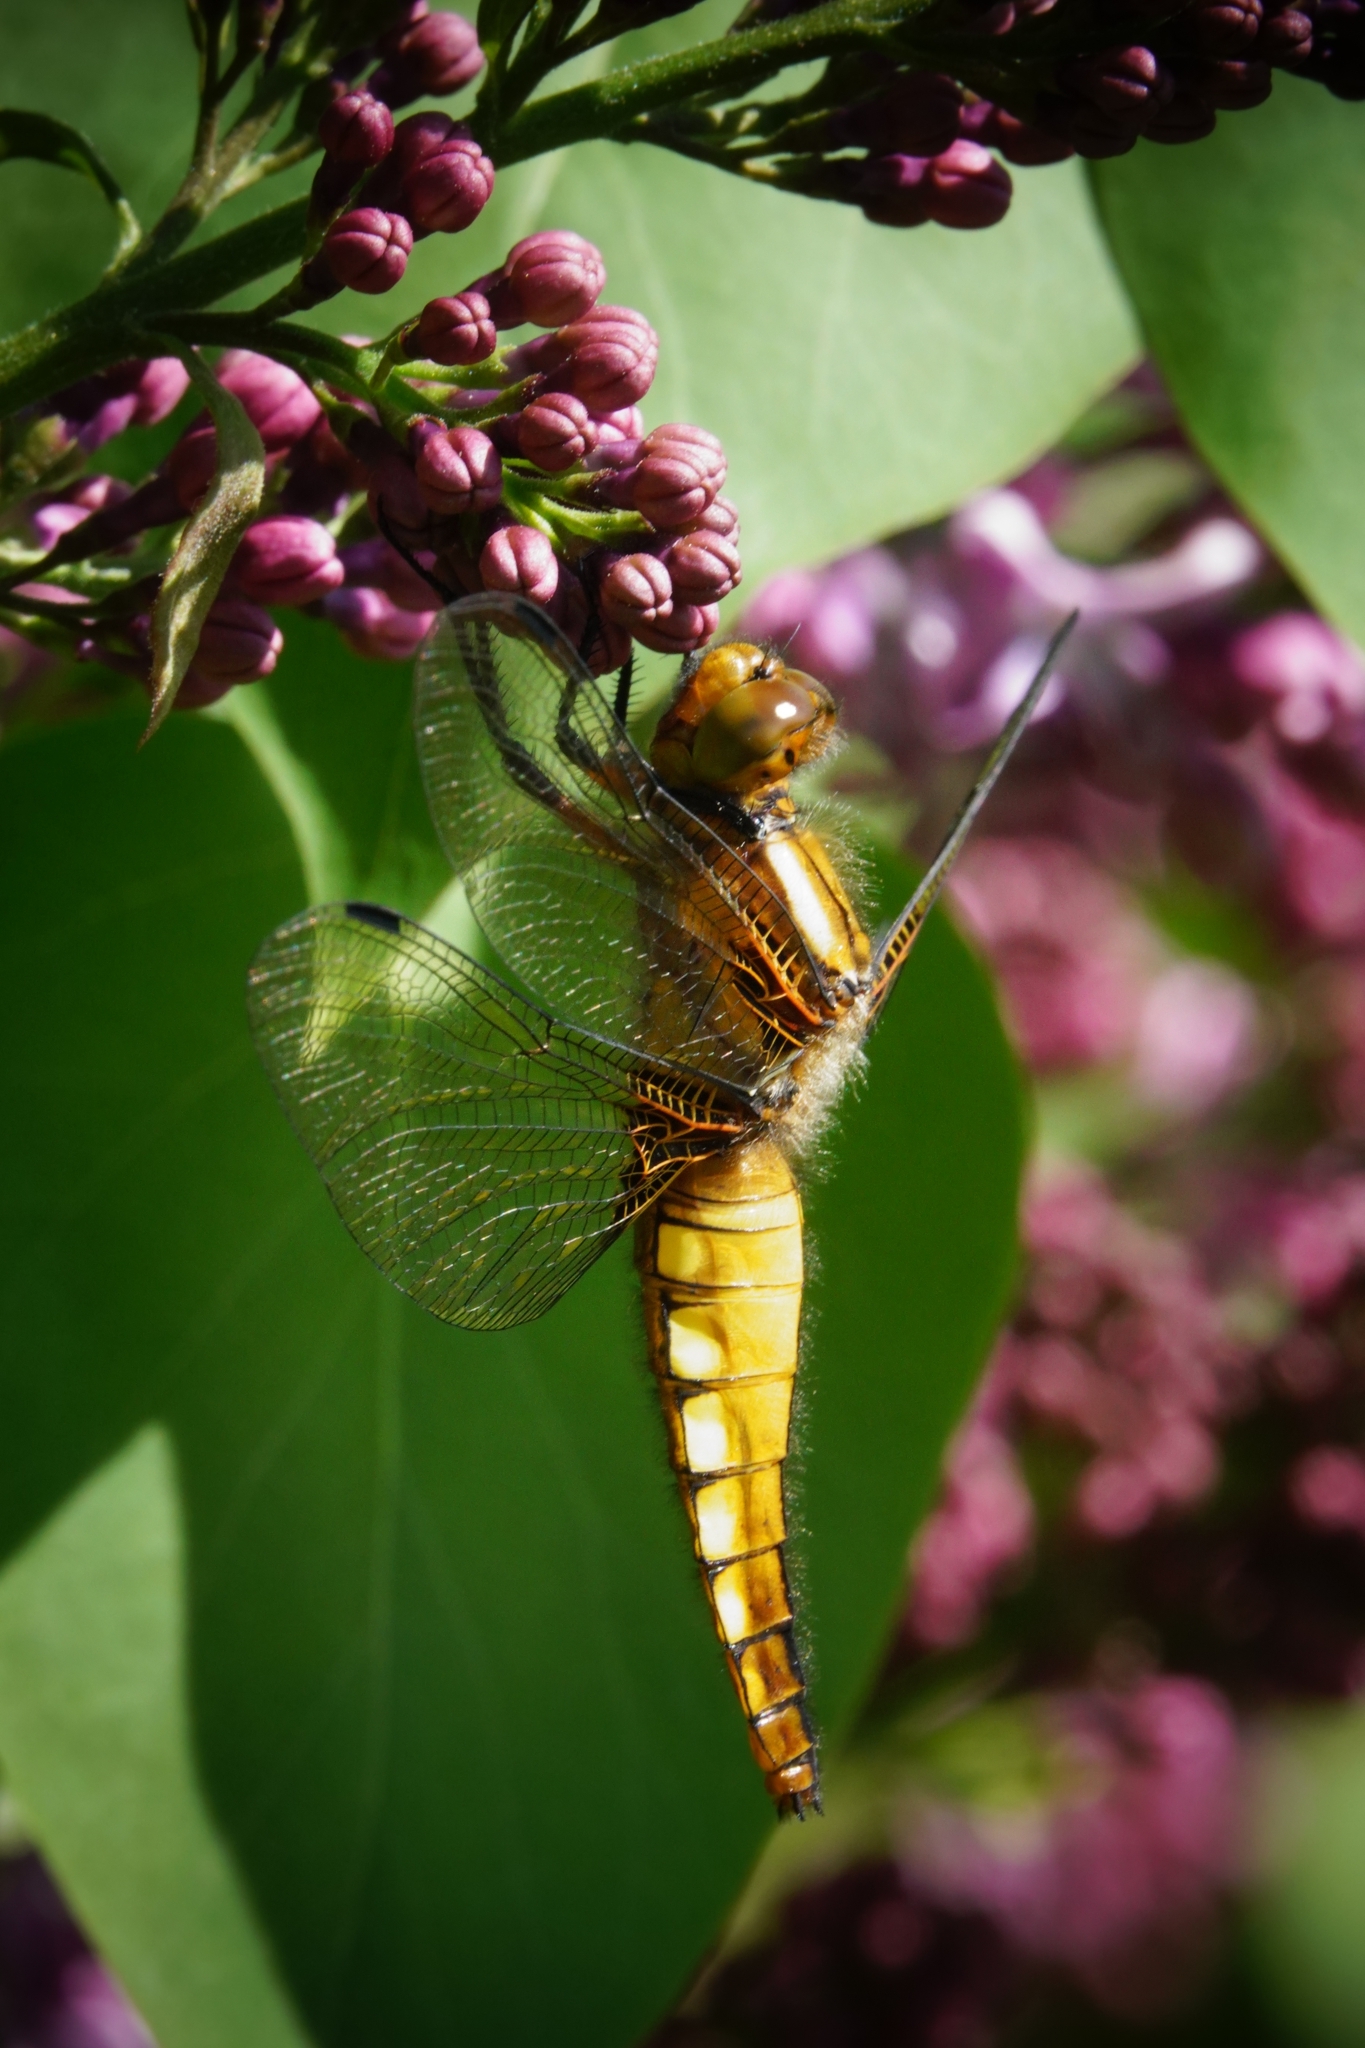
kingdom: Animalia
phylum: Arthropoda
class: Insecta
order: Odonata
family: Libellulidae
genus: Libellula
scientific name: Libellula depressa
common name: Broad-bodied chaser
